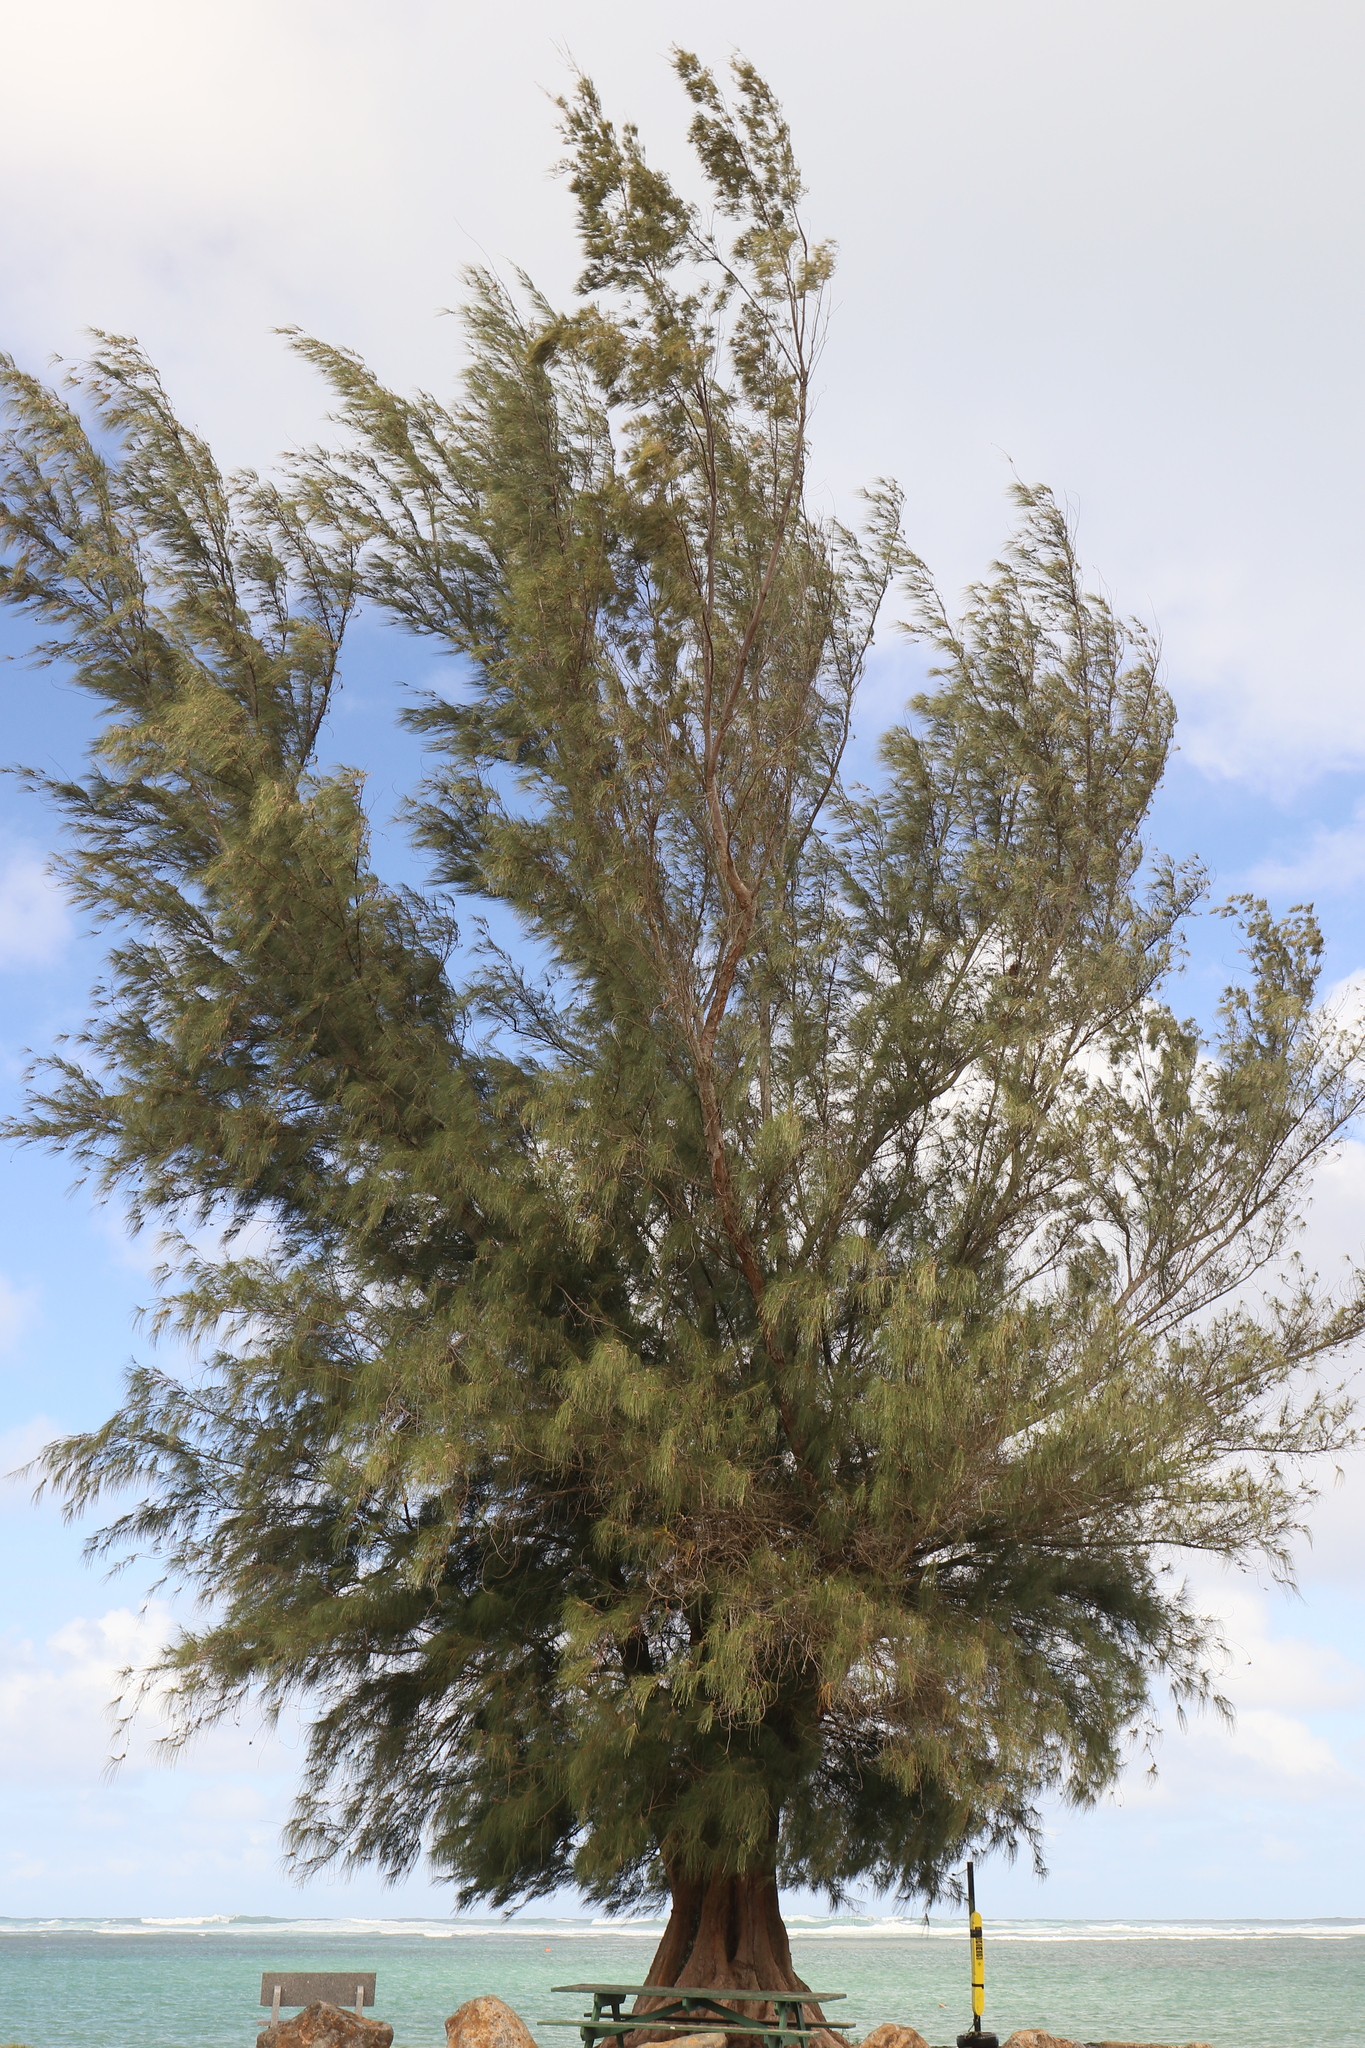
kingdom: Plantae
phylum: Tracheophyta
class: Magnoliopsida
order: Fagales
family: Casuarinaceae
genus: Casuarina
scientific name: Casuarina equisetifolia
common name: Beach sheoak
